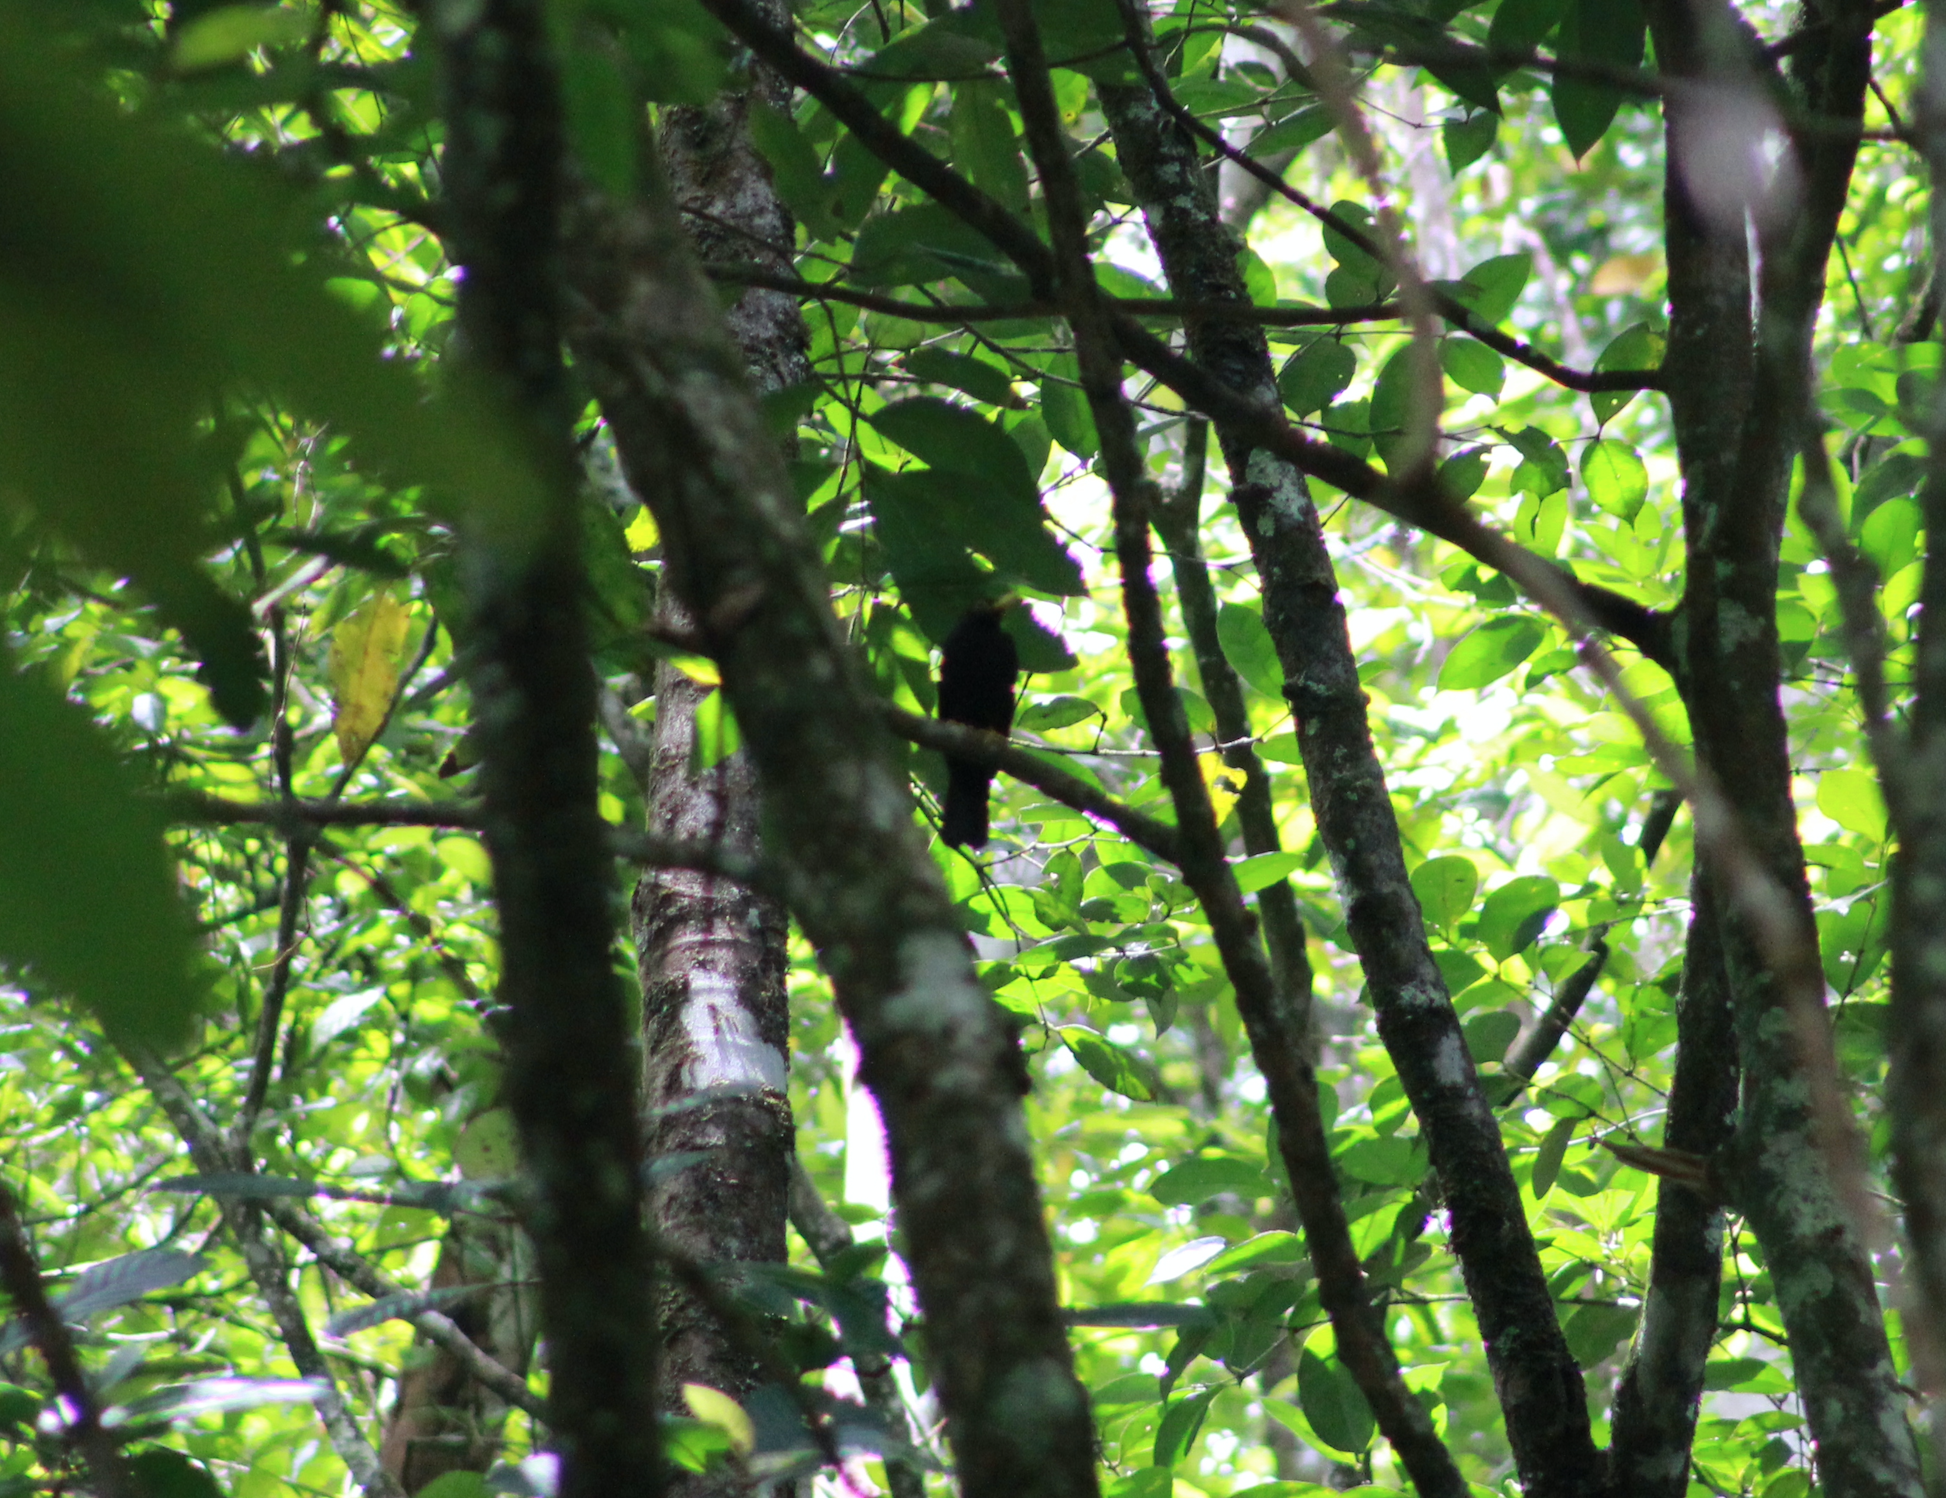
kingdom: Animalia
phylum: Chordata
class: Aves
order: Passeriformes
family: Turdidae
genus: Turdus
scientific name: Turdus flavipes
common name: Yellow-legged thrush
